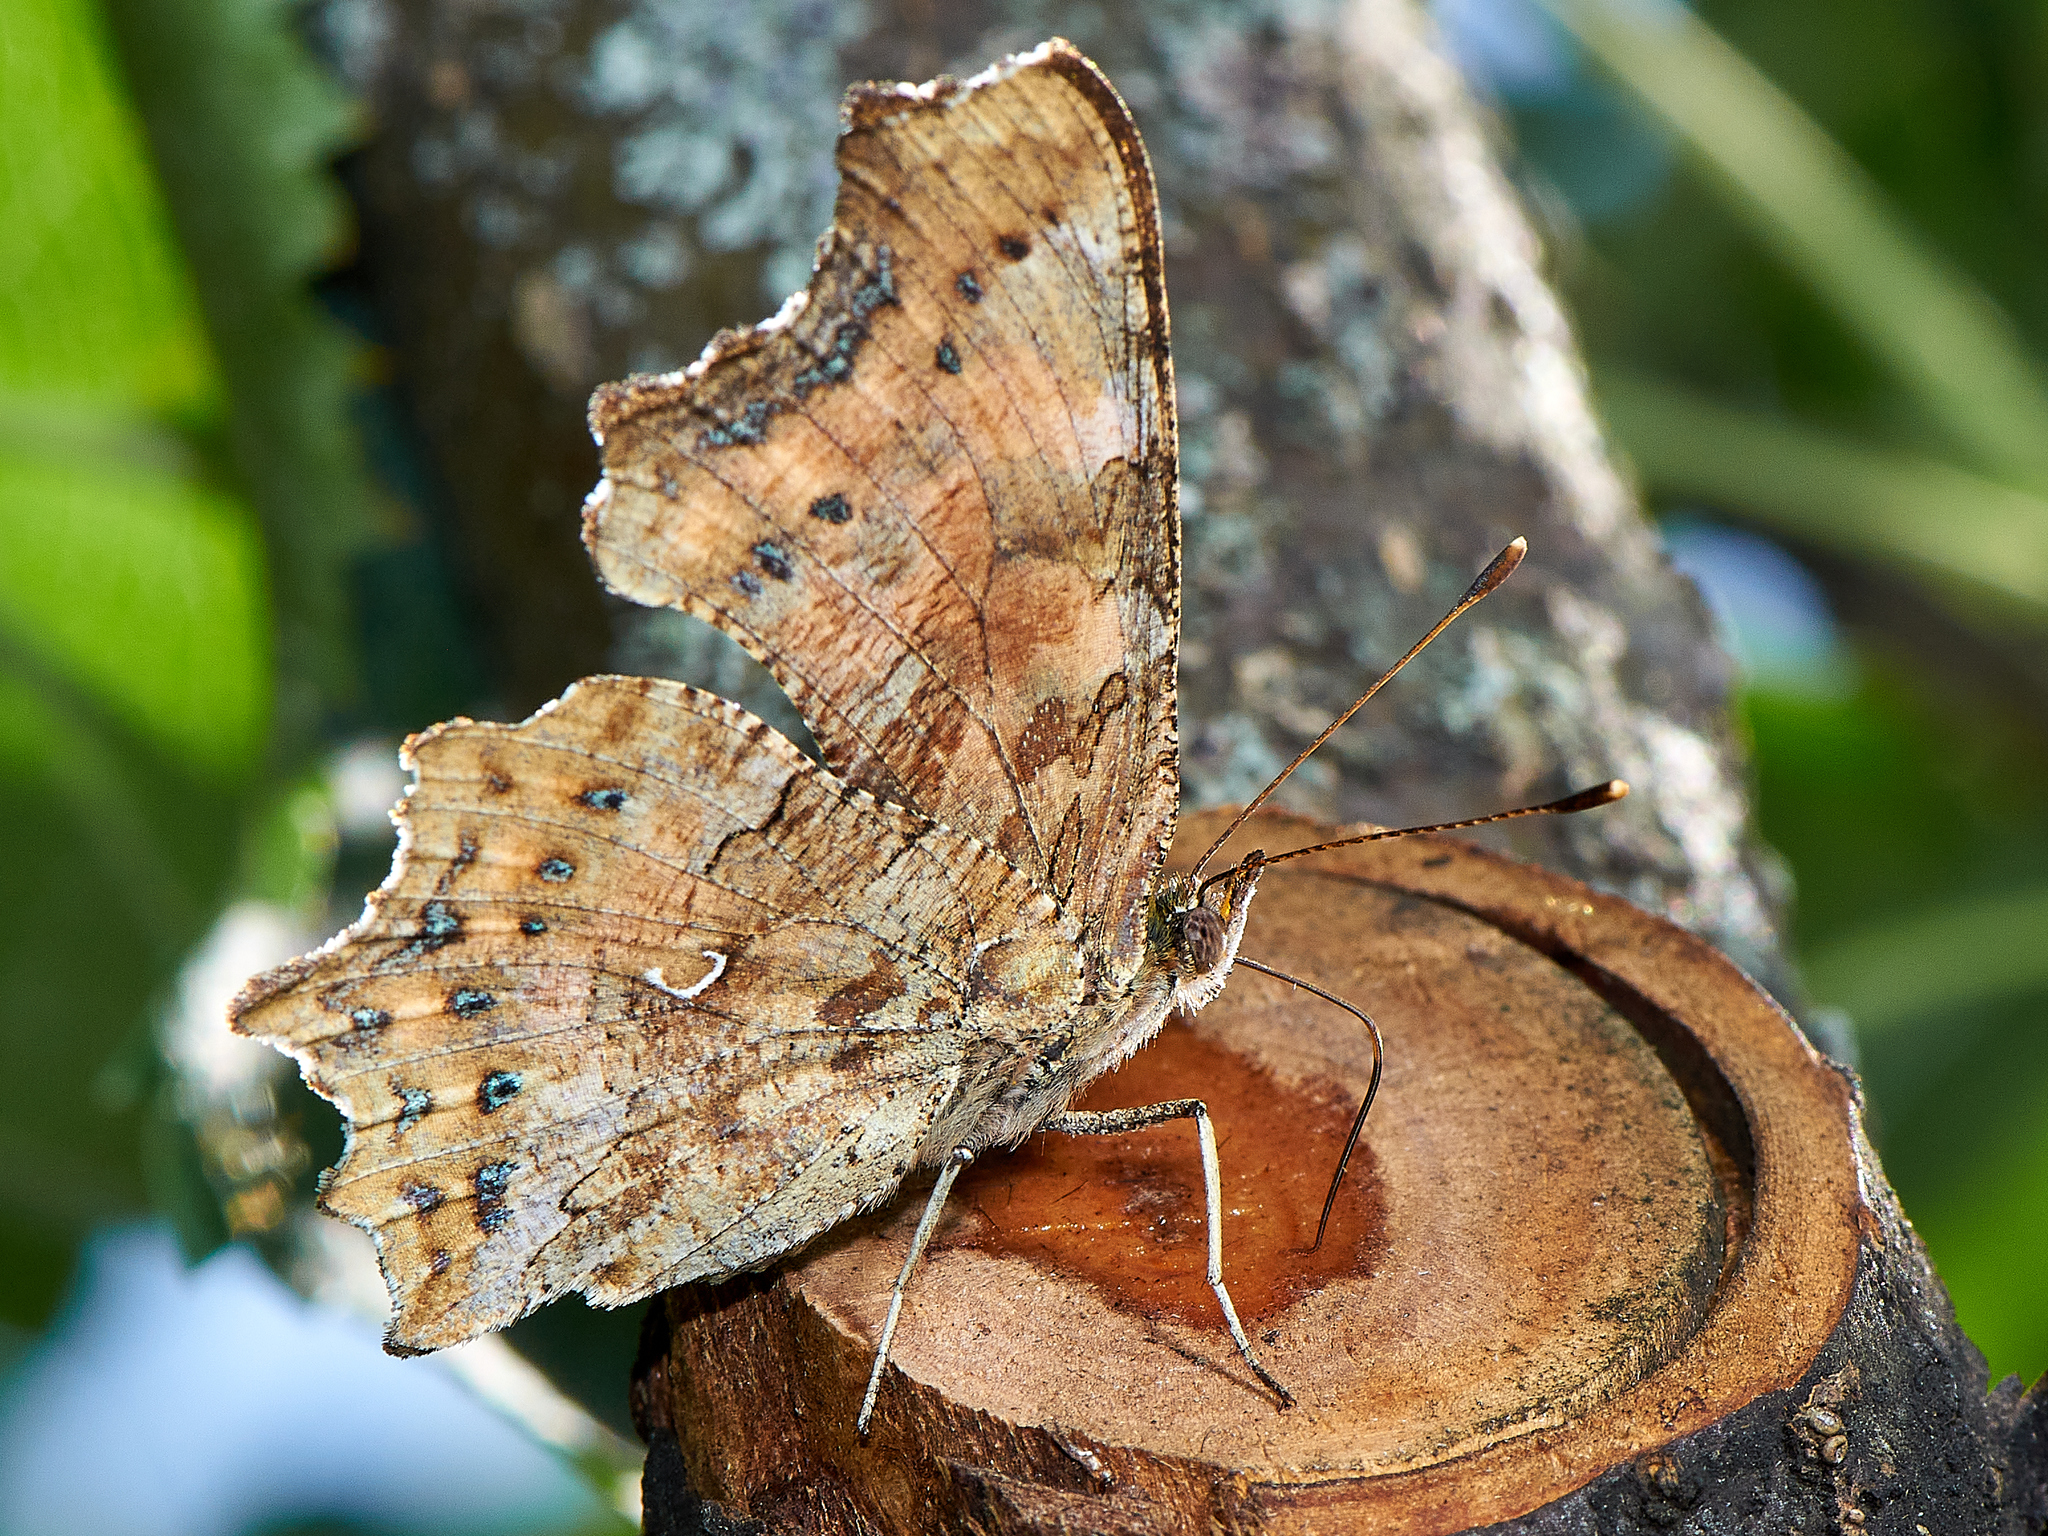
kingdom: Animalia
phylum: Arthropoda
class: Insecta
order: Lepidoptera
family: Nymphalidae
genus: Polygonia
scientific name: Polygonia c-album
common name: Comma
